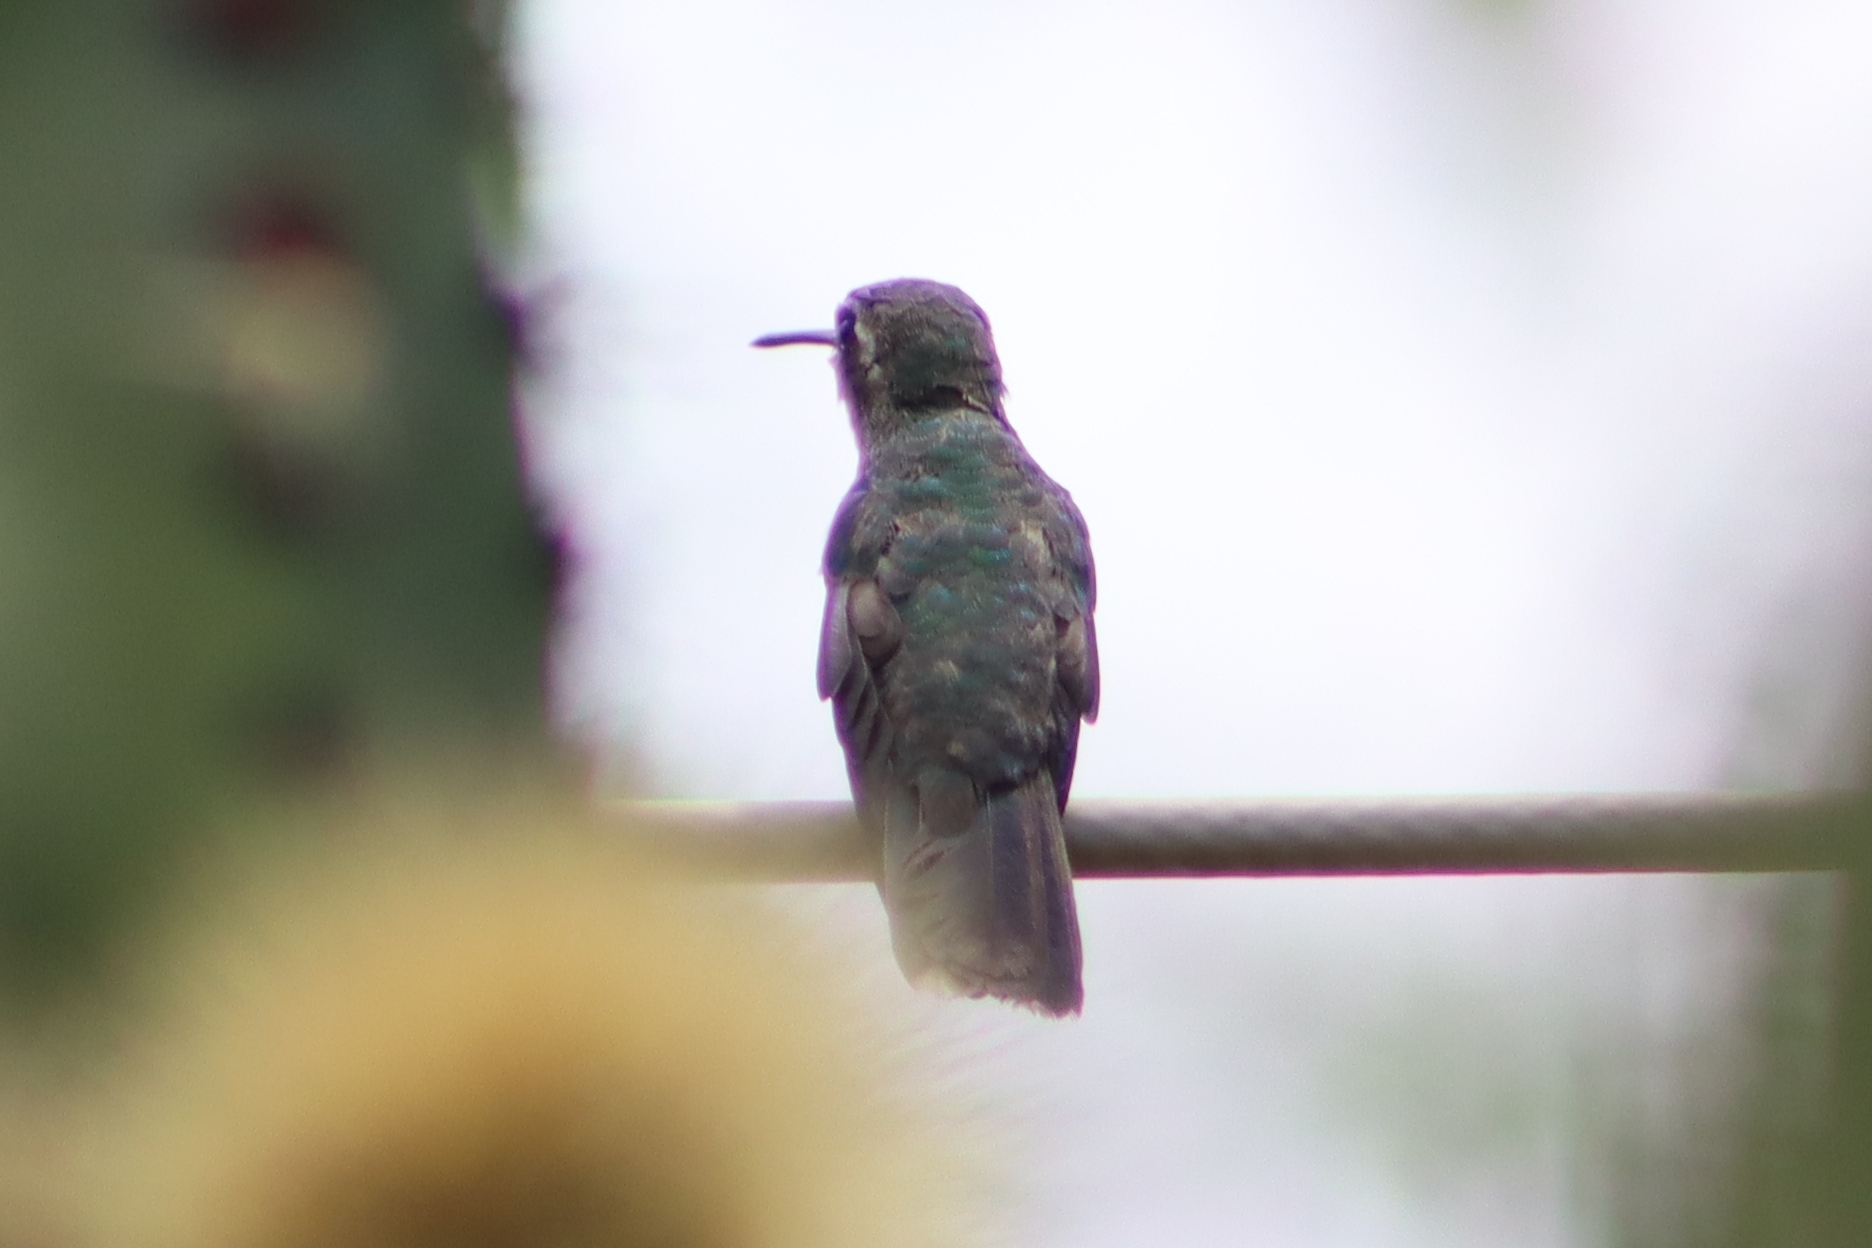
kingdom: Animalia
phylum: Chordata
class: Aves
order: Apodiformes
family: Trochilidae
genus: Cynanthus
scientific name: Cynanthus latirostris
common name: Broad-billed hummingbird
